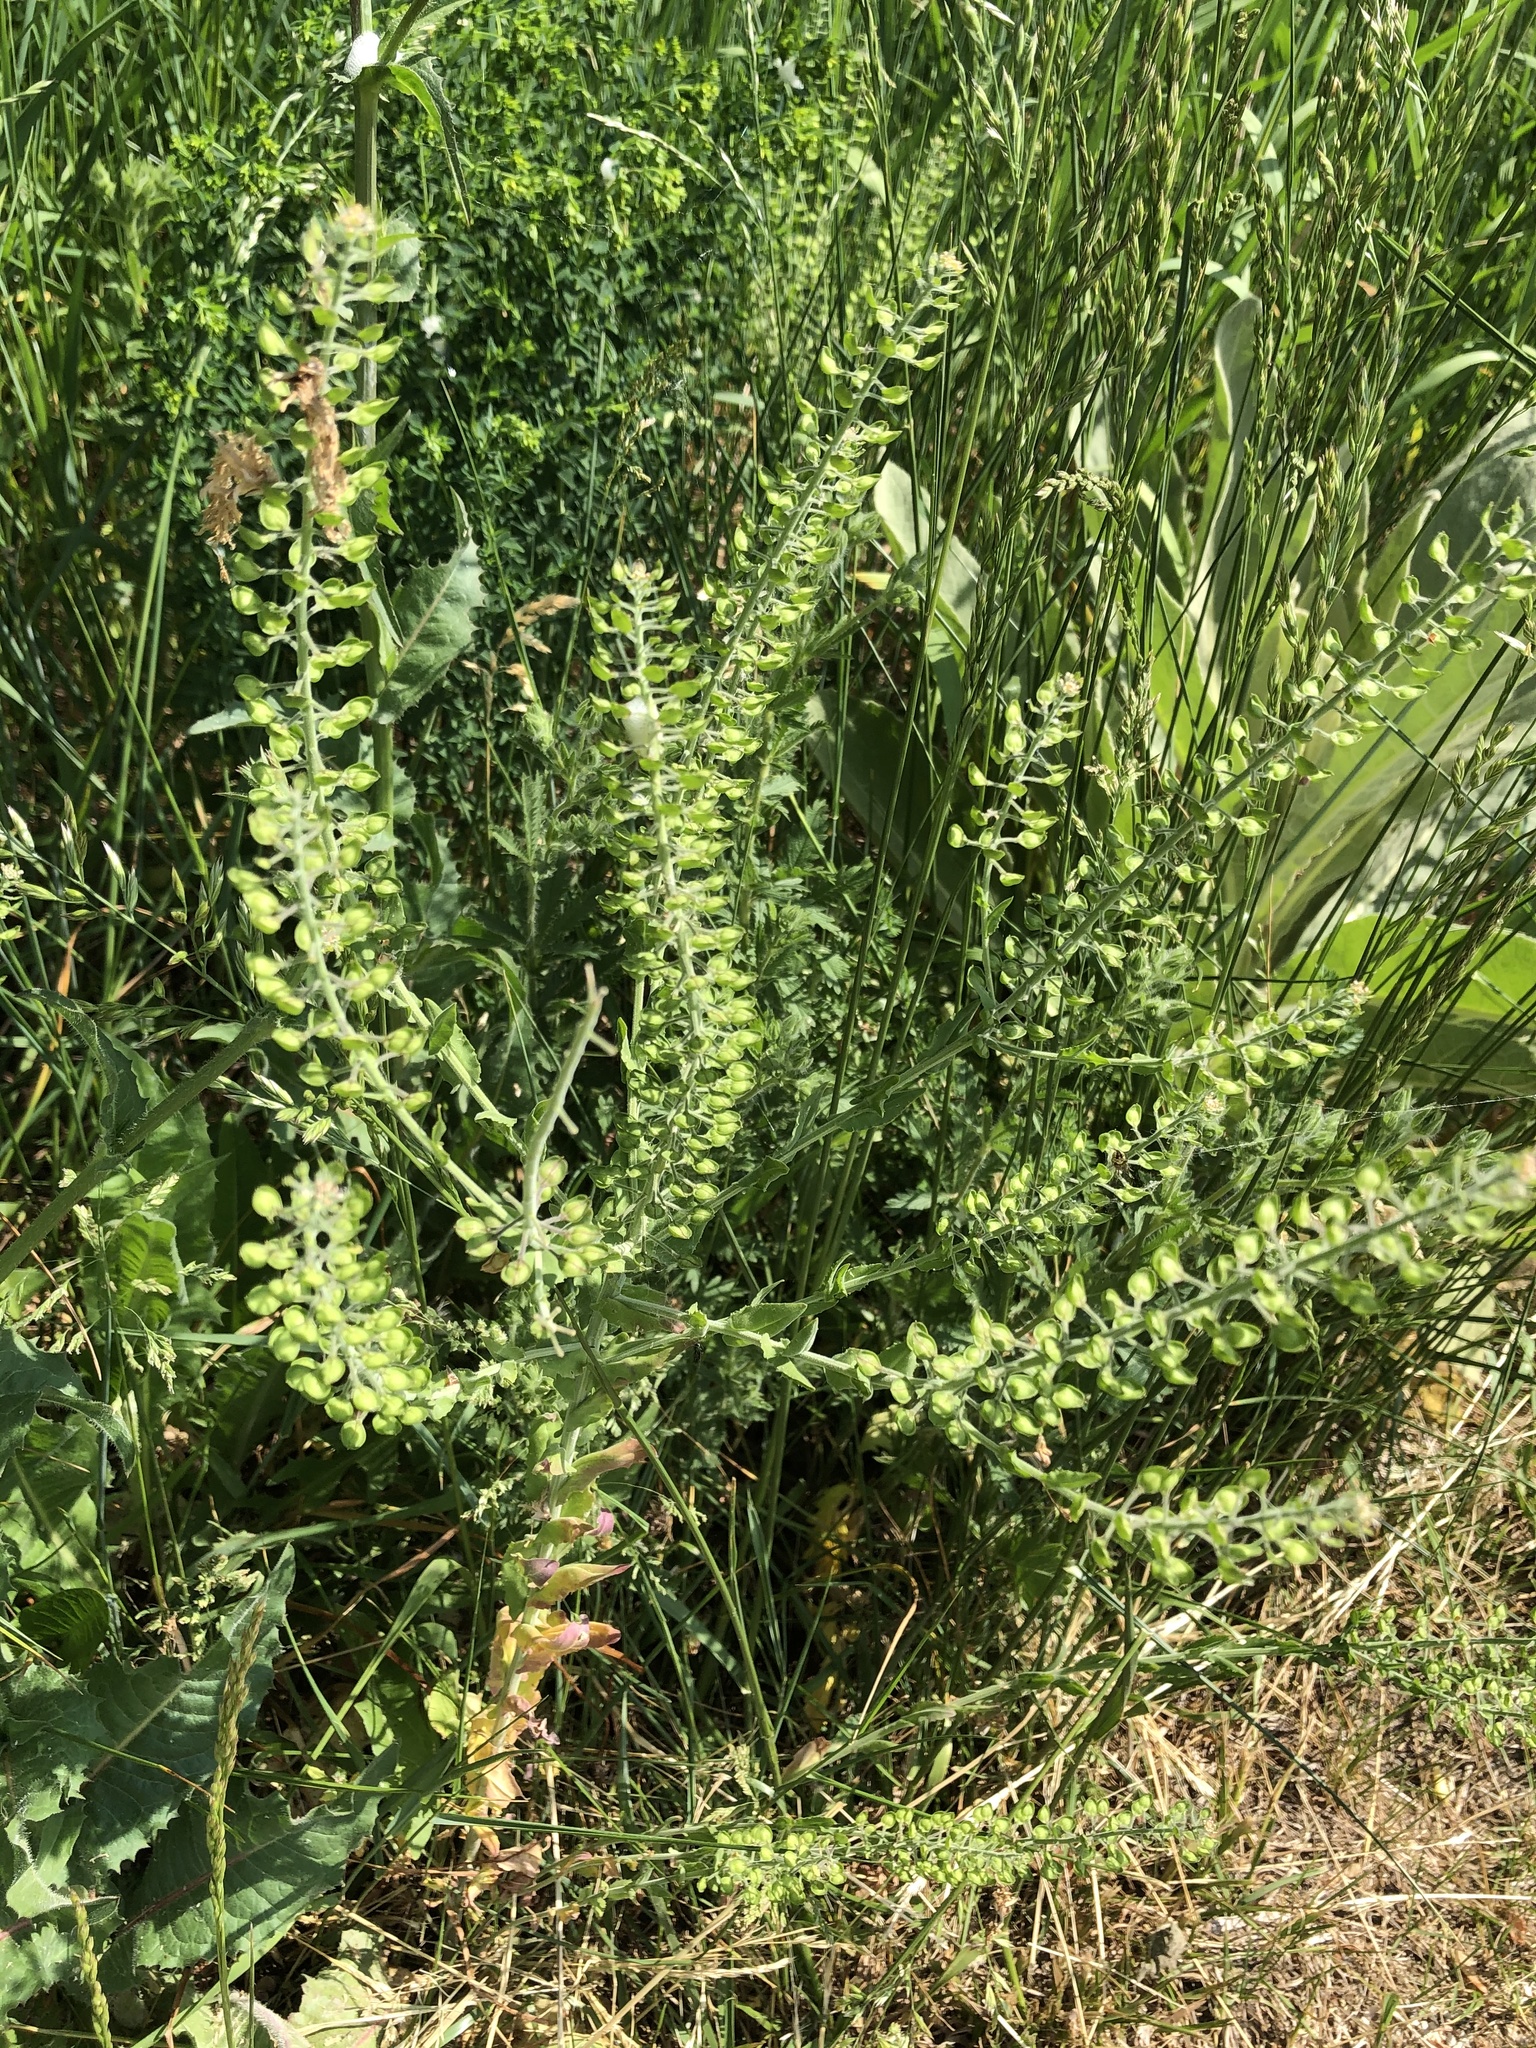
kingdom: Plantae
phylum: Tracheophyta
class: Magnoliopsida
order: Brassicales
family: Brassicaceae
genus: Lepidium
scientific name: Lepidium campestre
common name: Field pepperwort
